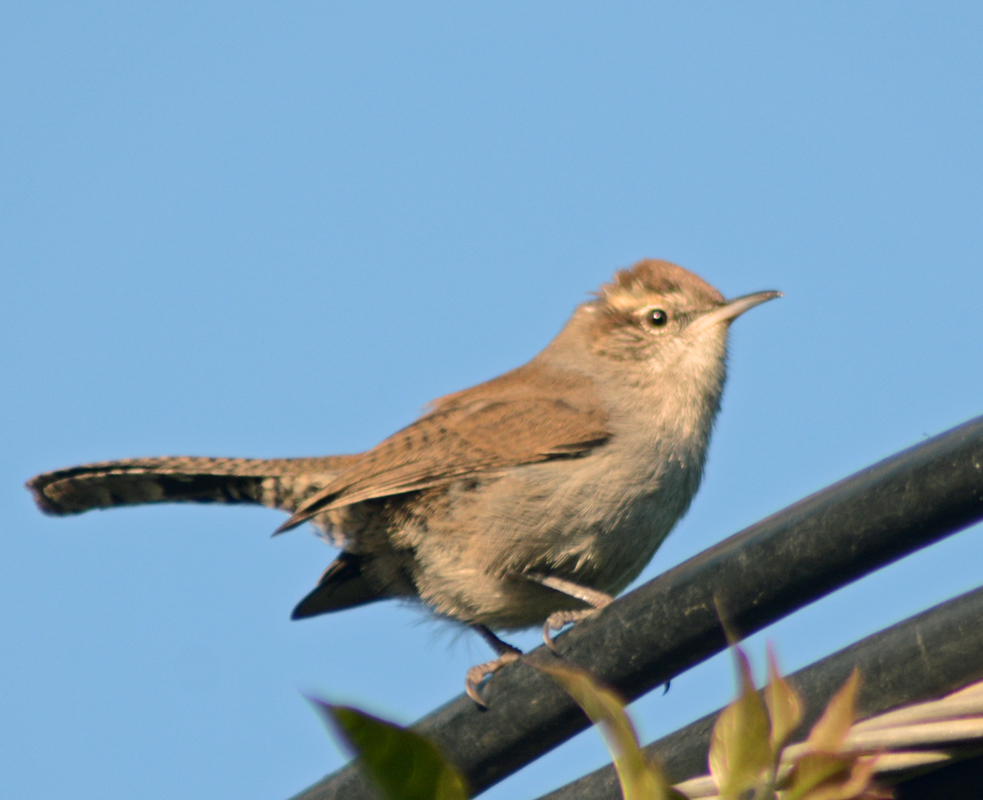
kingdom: Animalia
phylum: Chordata
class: Aves
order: Passeriformes
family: Troglodytidae
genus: Thryomanes
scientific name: Thryomanes bewickii
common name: Bewick's wren
